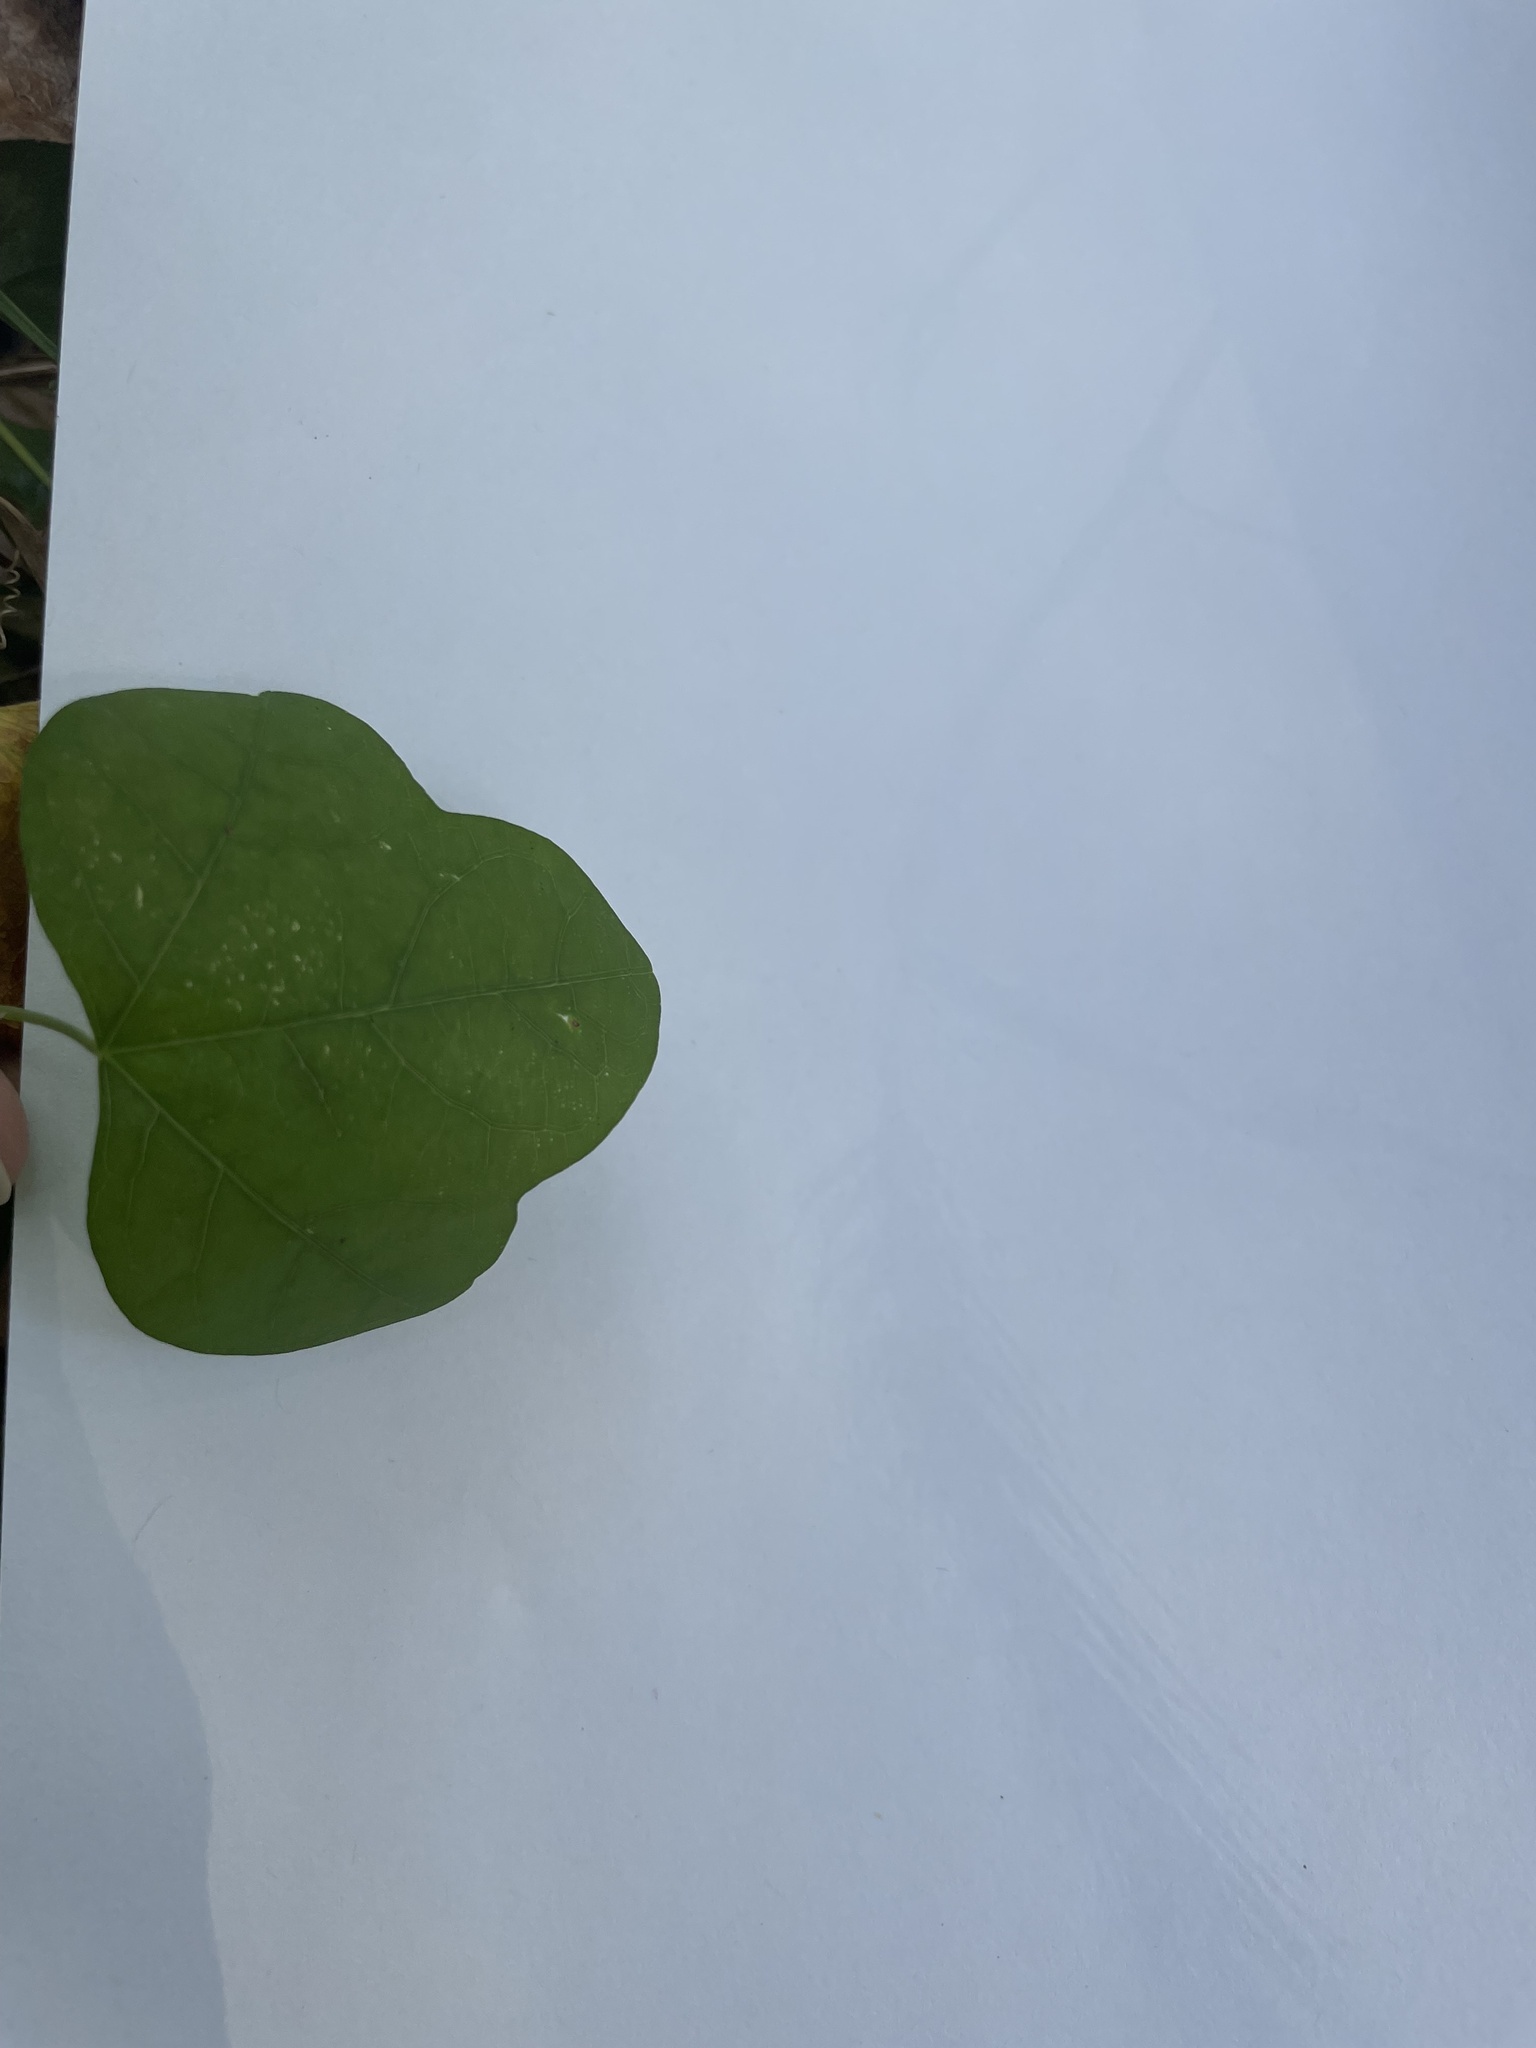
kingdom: Plantae
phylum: Tracheophyta
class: Magnoliopsida
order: Malpighiales
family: Passifloraceae
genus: Passiflora
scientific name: Passiflora lutea
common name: Yellow passionflower
